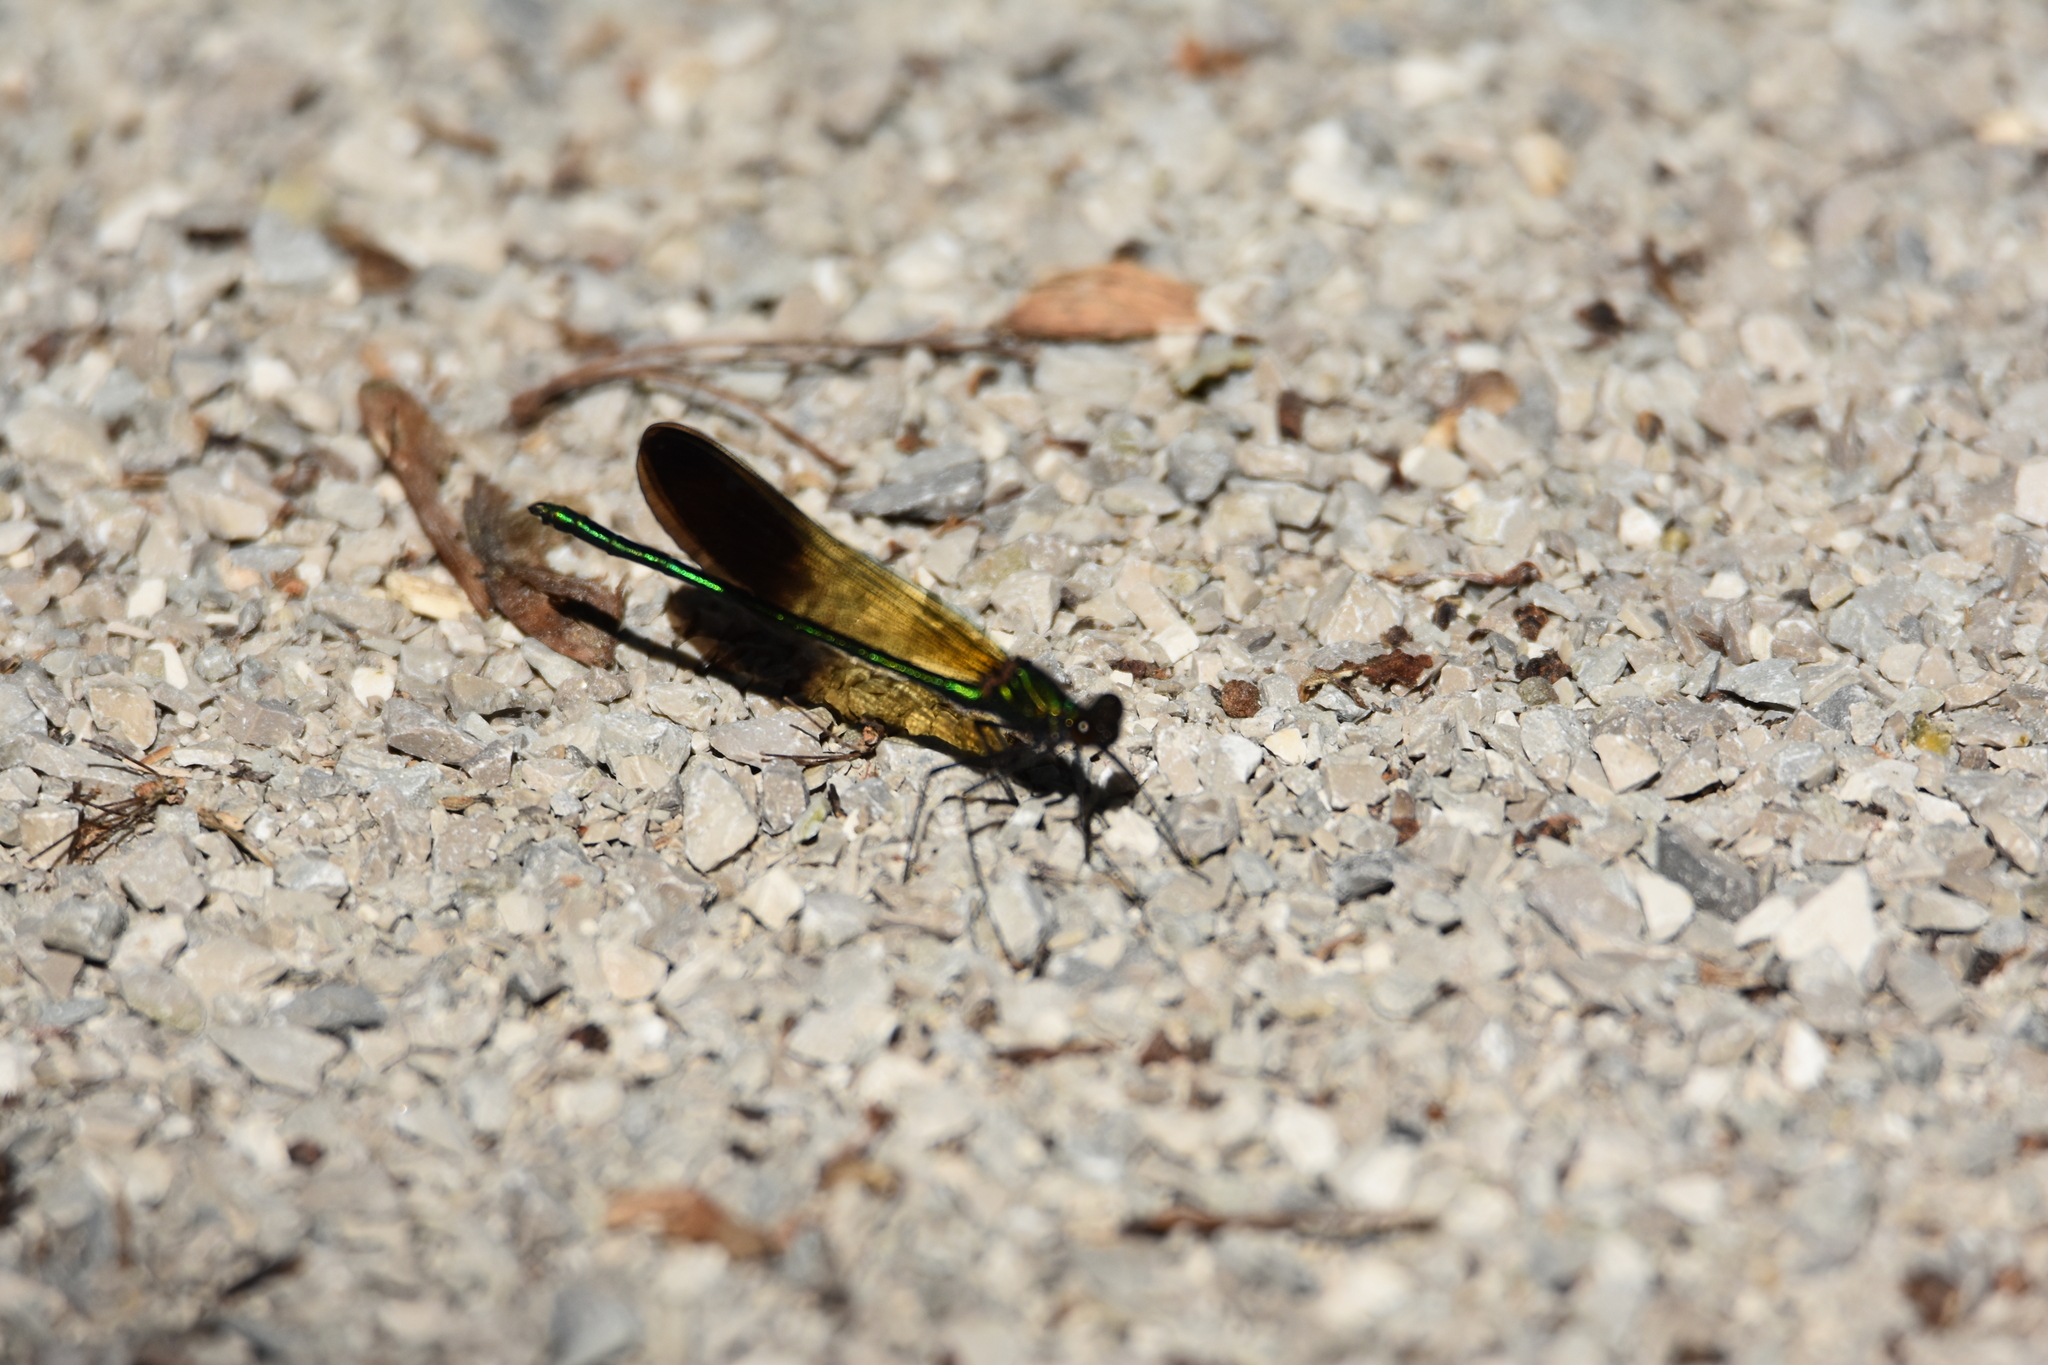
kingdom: Animalia
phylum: Arthropoda
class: Insecta
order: Odonata
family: Calopterygidae
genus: Calopteryx
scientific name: Calopteryx aequabilis
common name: River jewelwing
